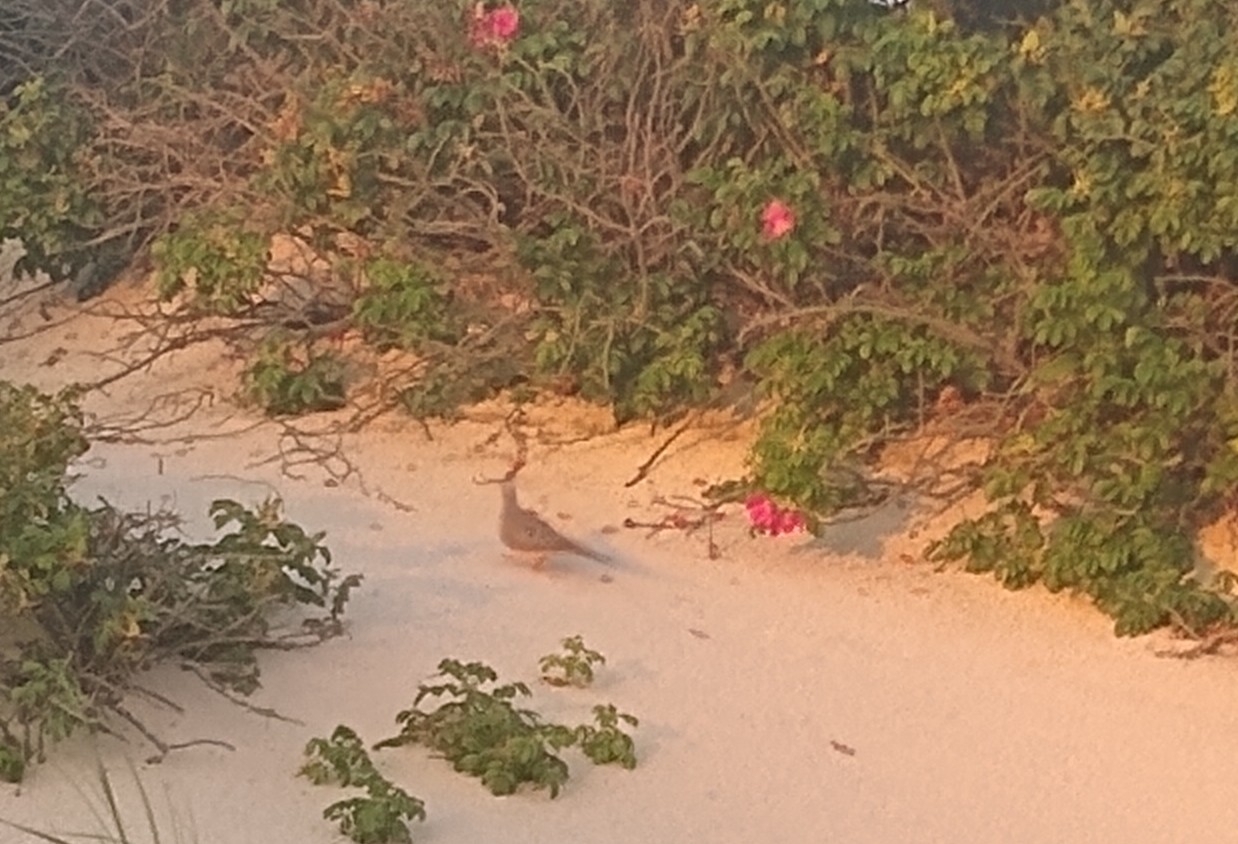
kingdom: Animalia
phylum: Chordata
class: Aves
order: Columbiformes
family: Columbidae
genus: Zenaida
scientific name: Zenaida macroura
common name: Mourning dove
